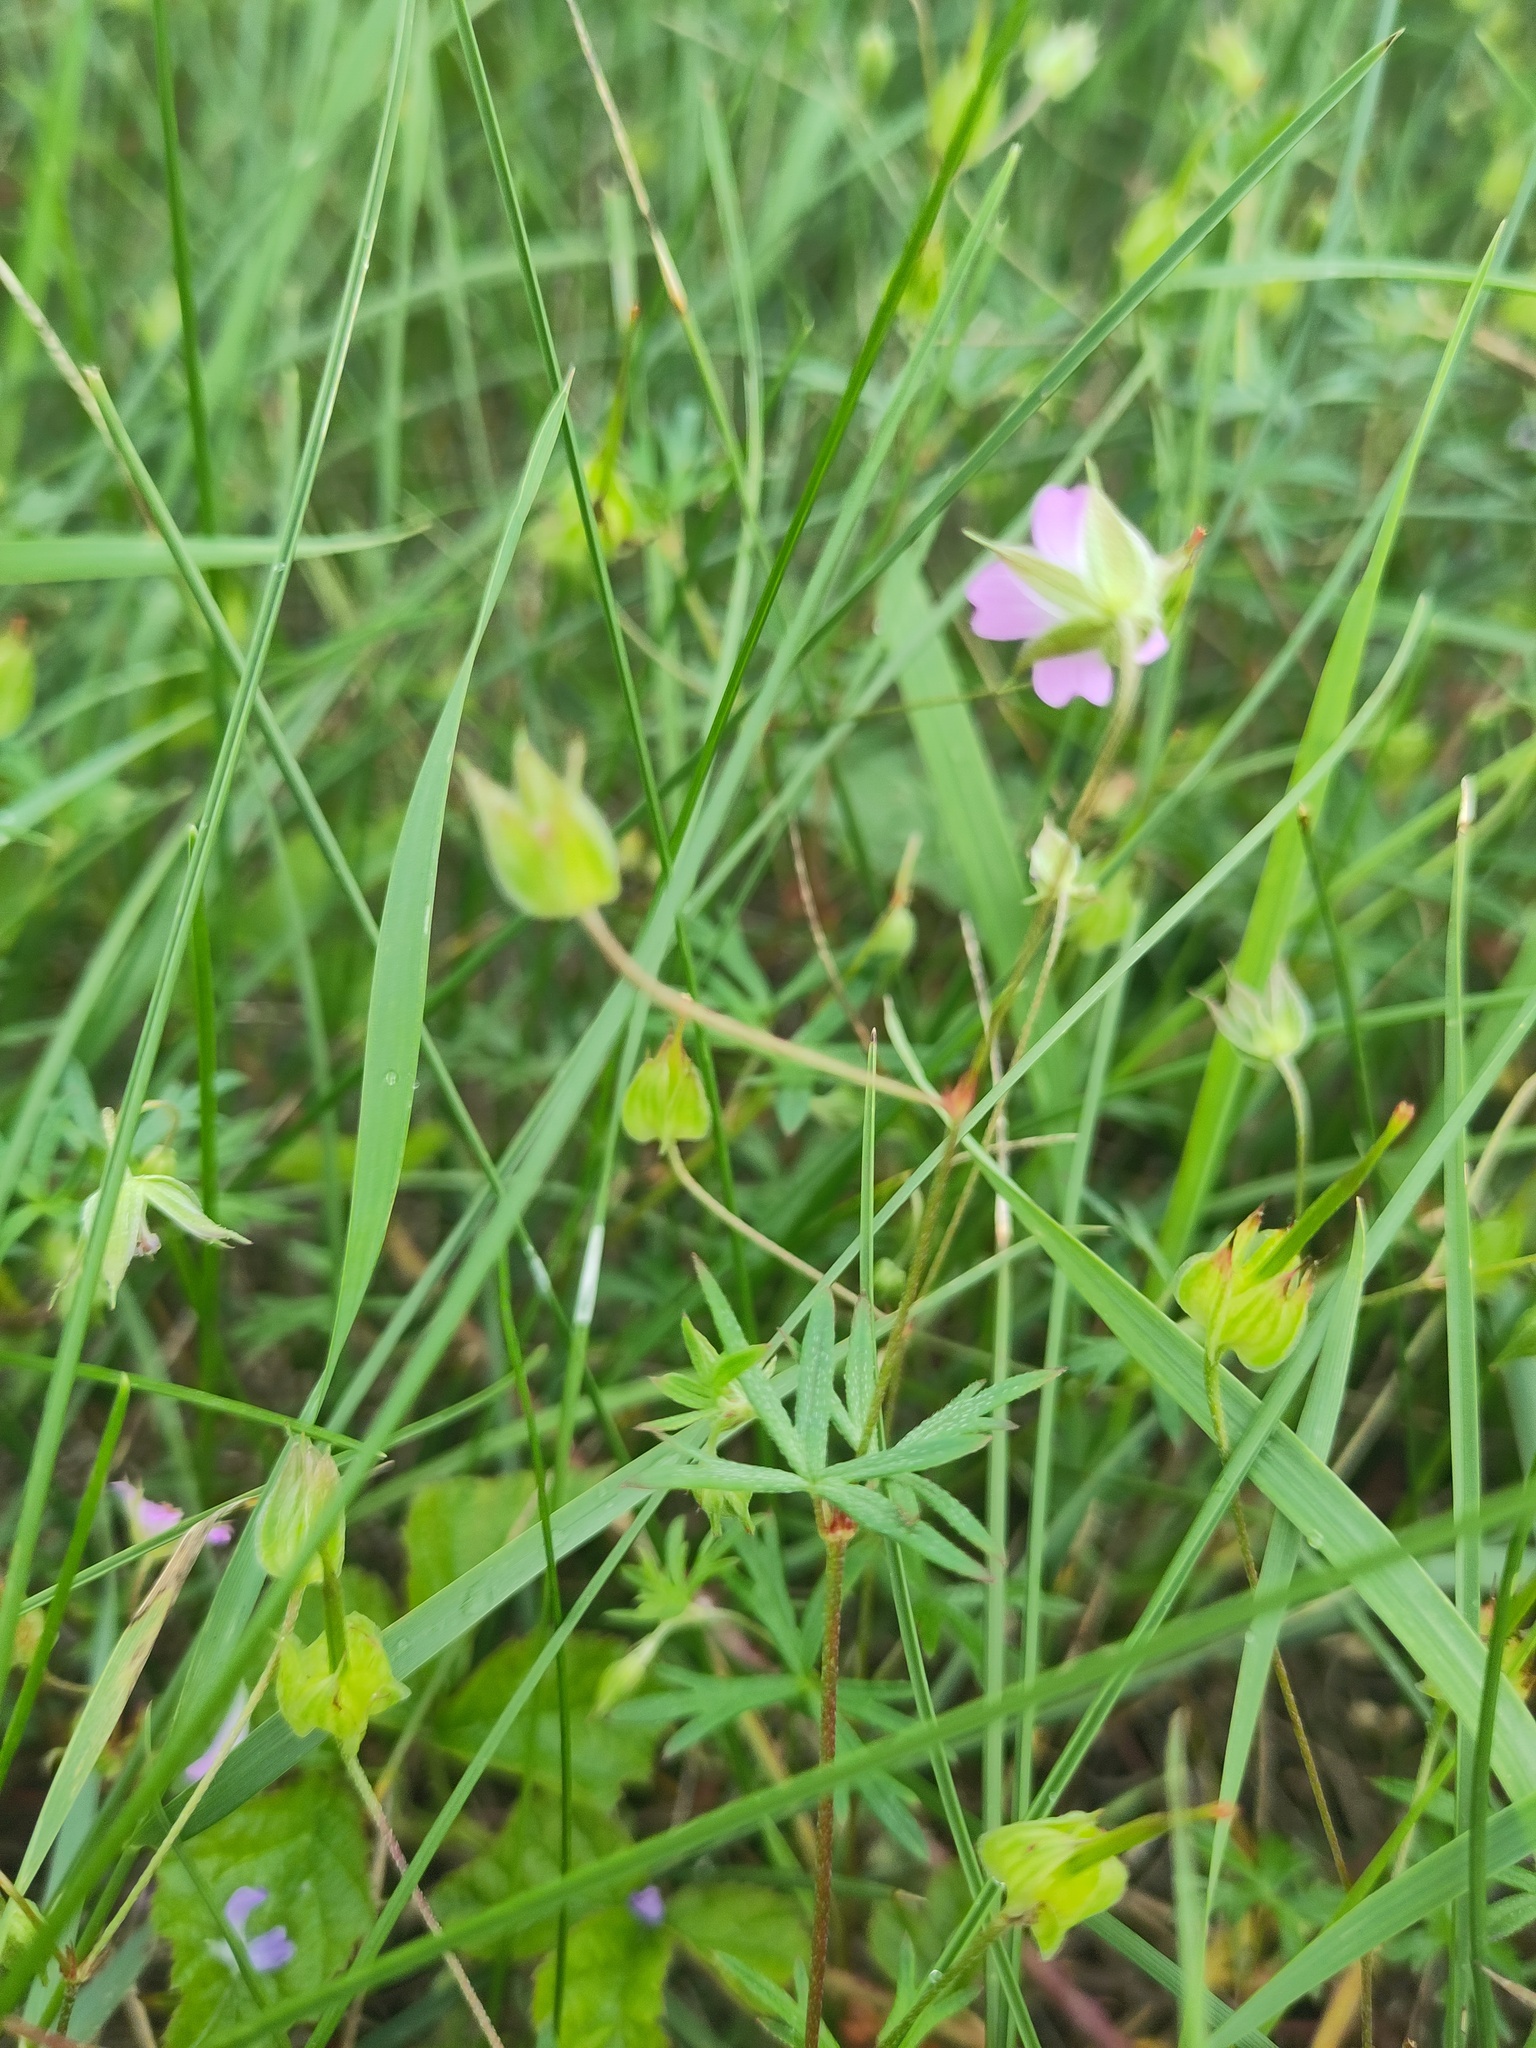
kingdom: Plantae
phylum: Tracheophyta
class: Magnoliopsida
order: Geraniales
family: Geraniaceae
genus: Geranium
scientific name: Geranium columbinum
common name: Long-stalked crane's-bill
